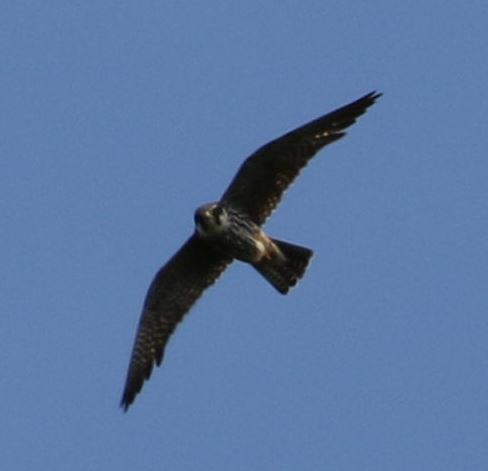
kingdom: Animalia
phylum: Chordata
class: Aves
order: Falconiformes
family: Falconidae
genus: Falco
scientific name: Falco subbuteo
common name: Eurasian hobby
